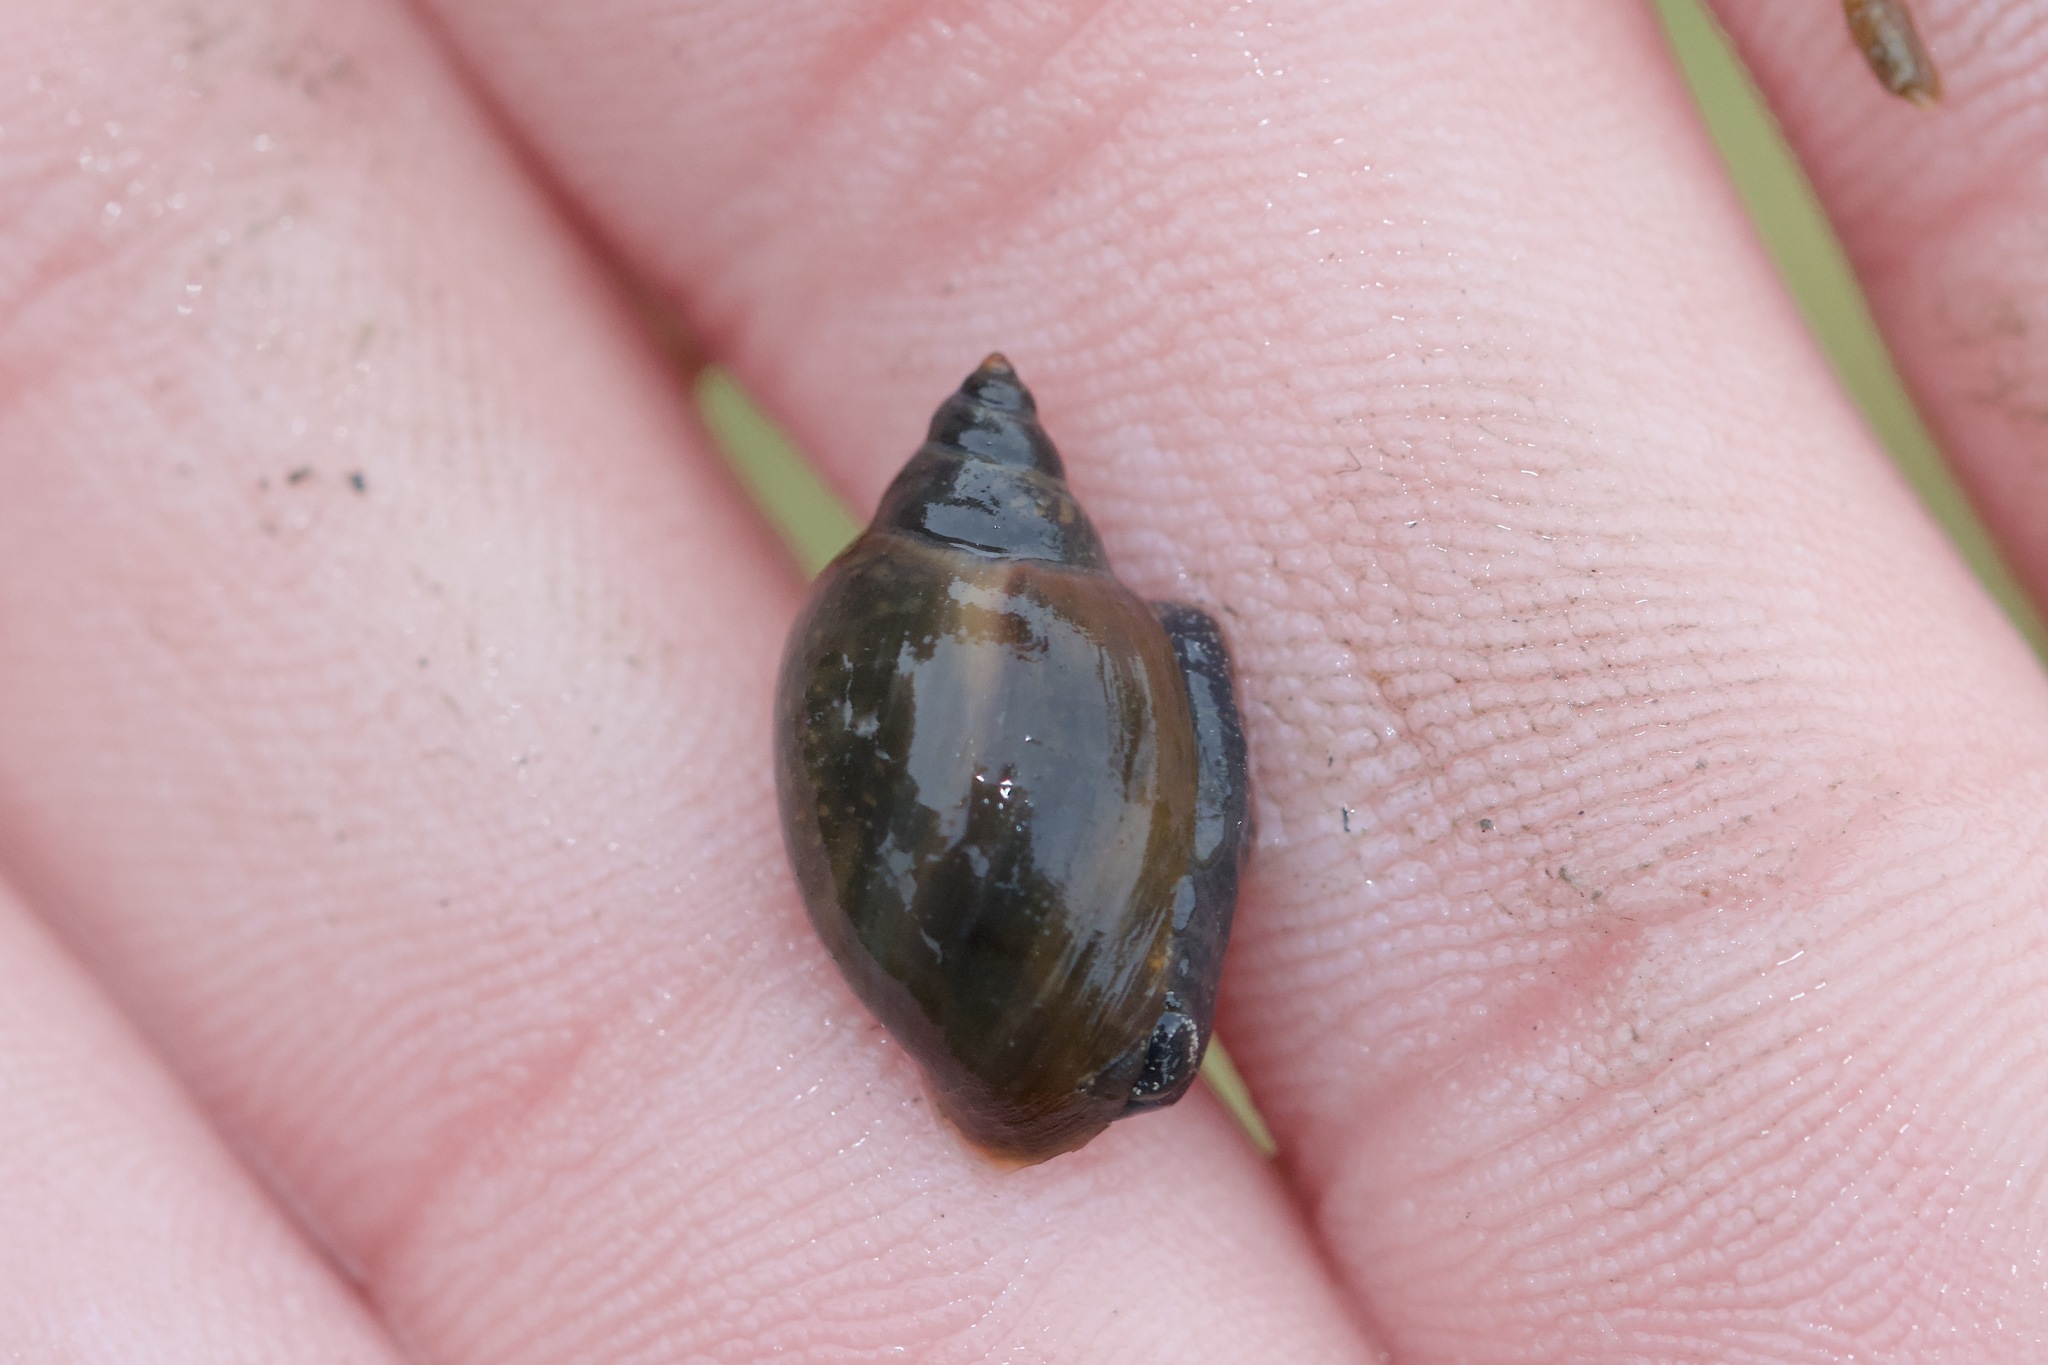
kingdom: Animalia
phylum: Mollusca
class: Gastropoda
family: Physidae
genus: Physella
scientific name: Physella acuta
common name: European physa
